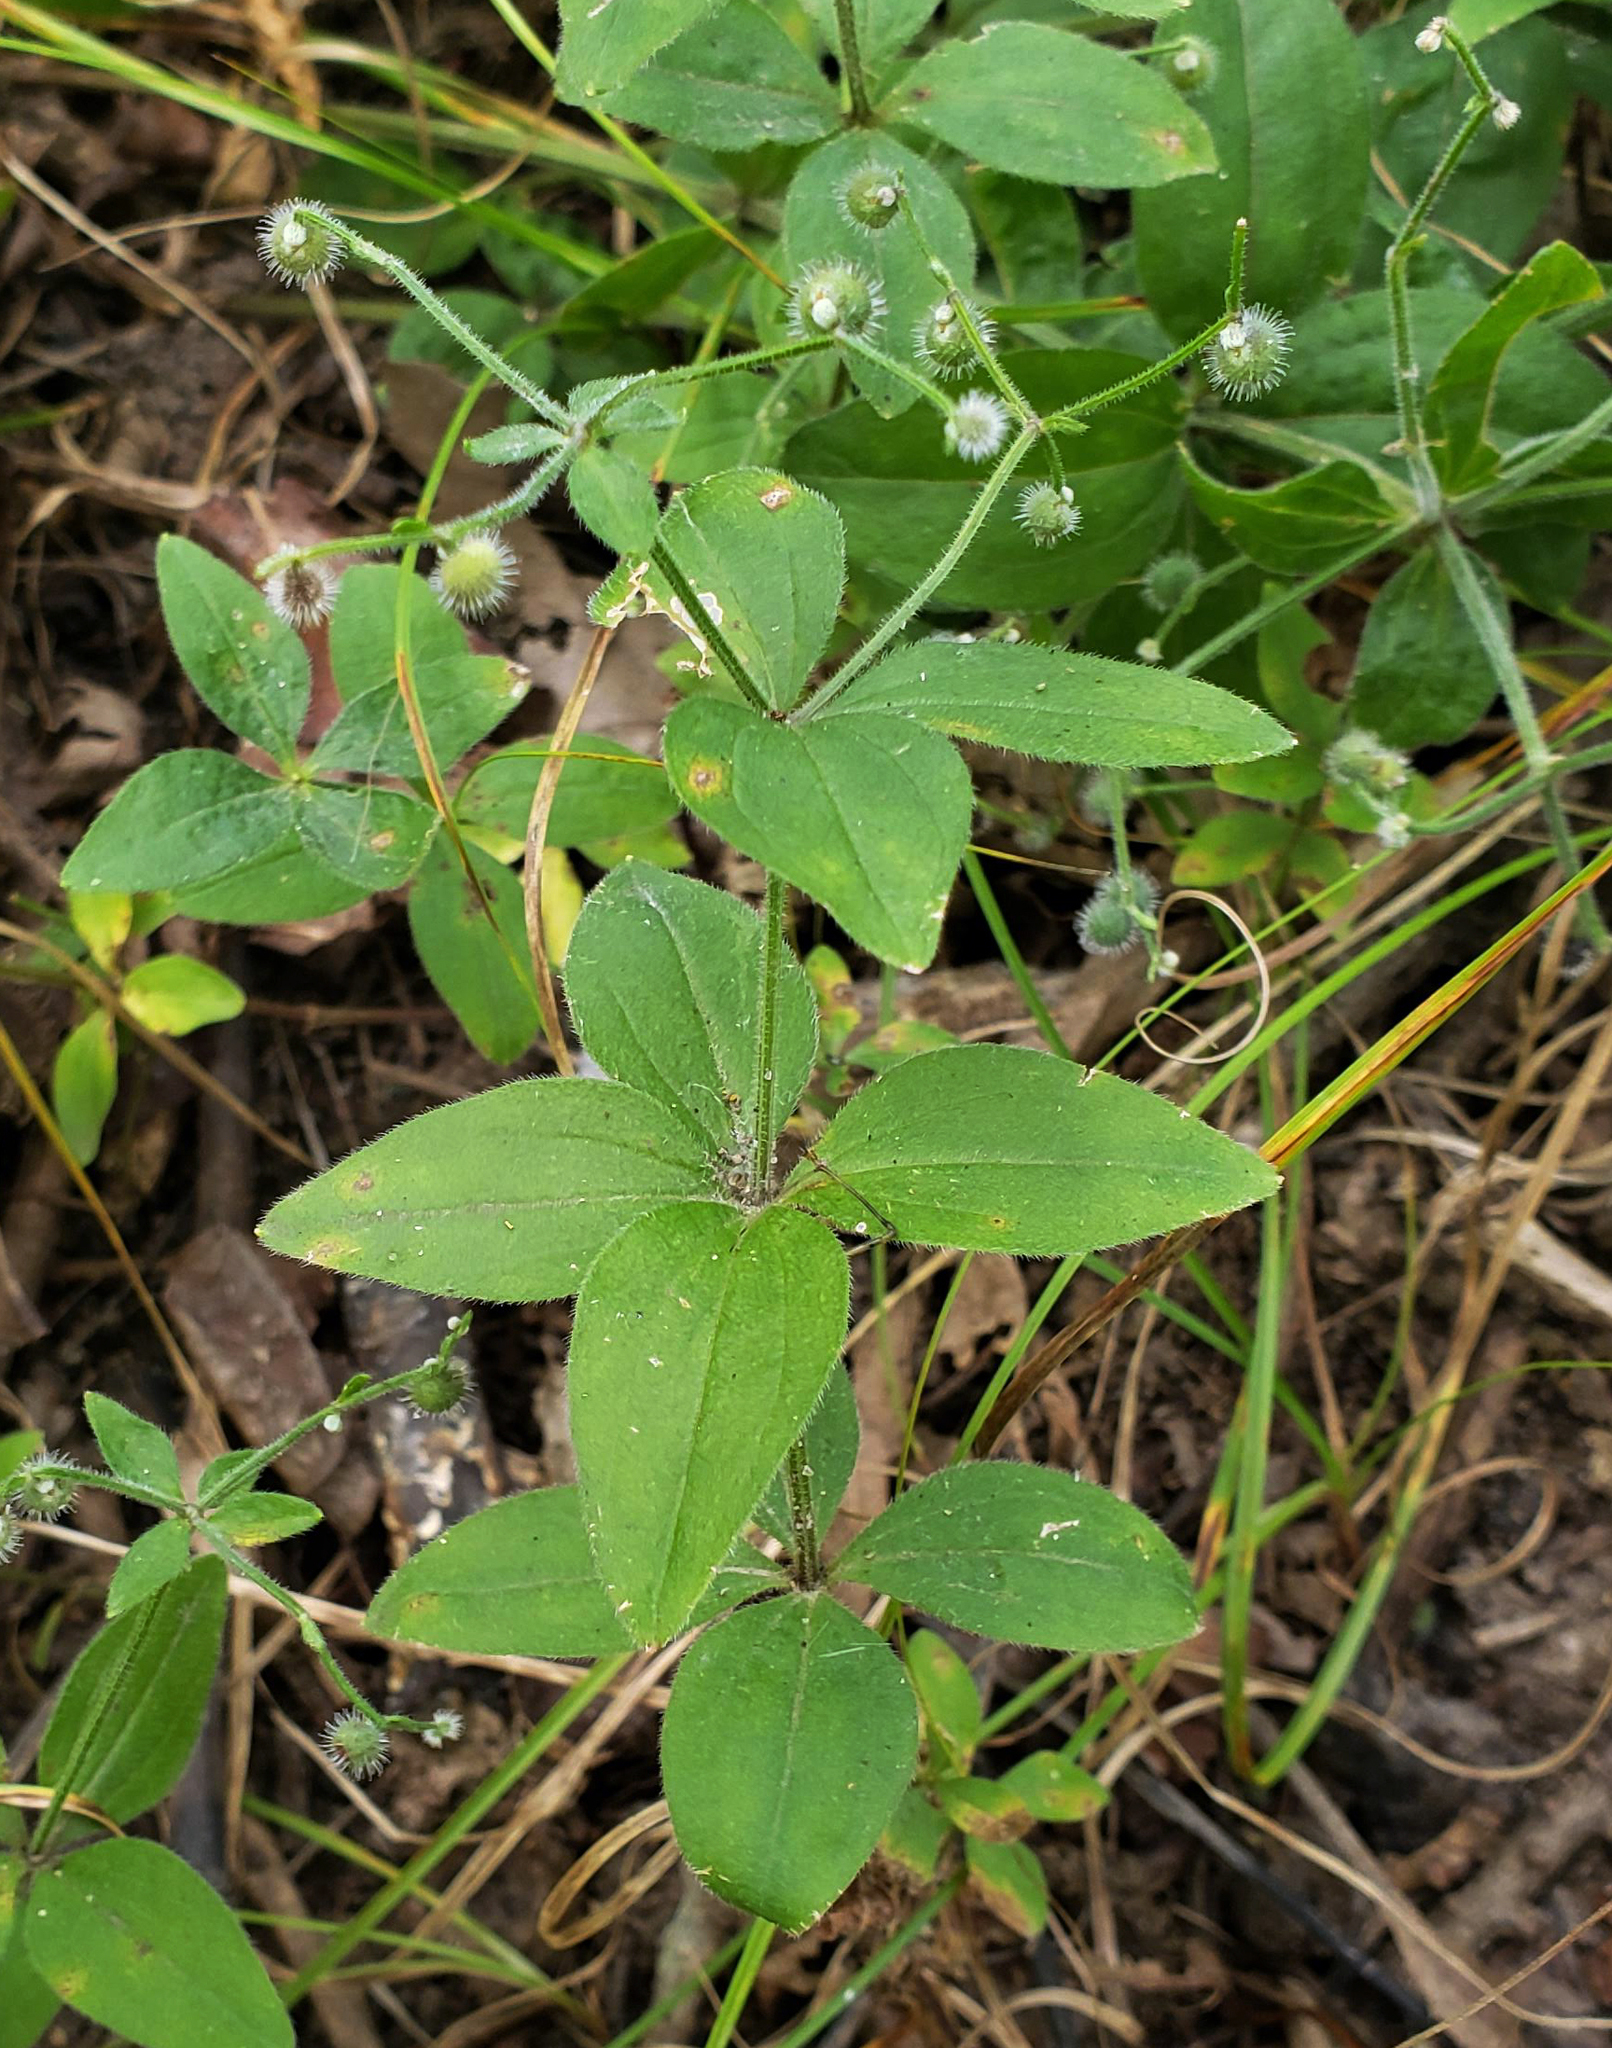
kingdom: Plantae
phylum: Tracheophyta
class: Magnoliopsida
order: Gentianales
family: Rubiaceae
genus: Galium
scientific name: Galium circaezans
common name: Forest bedstraw
